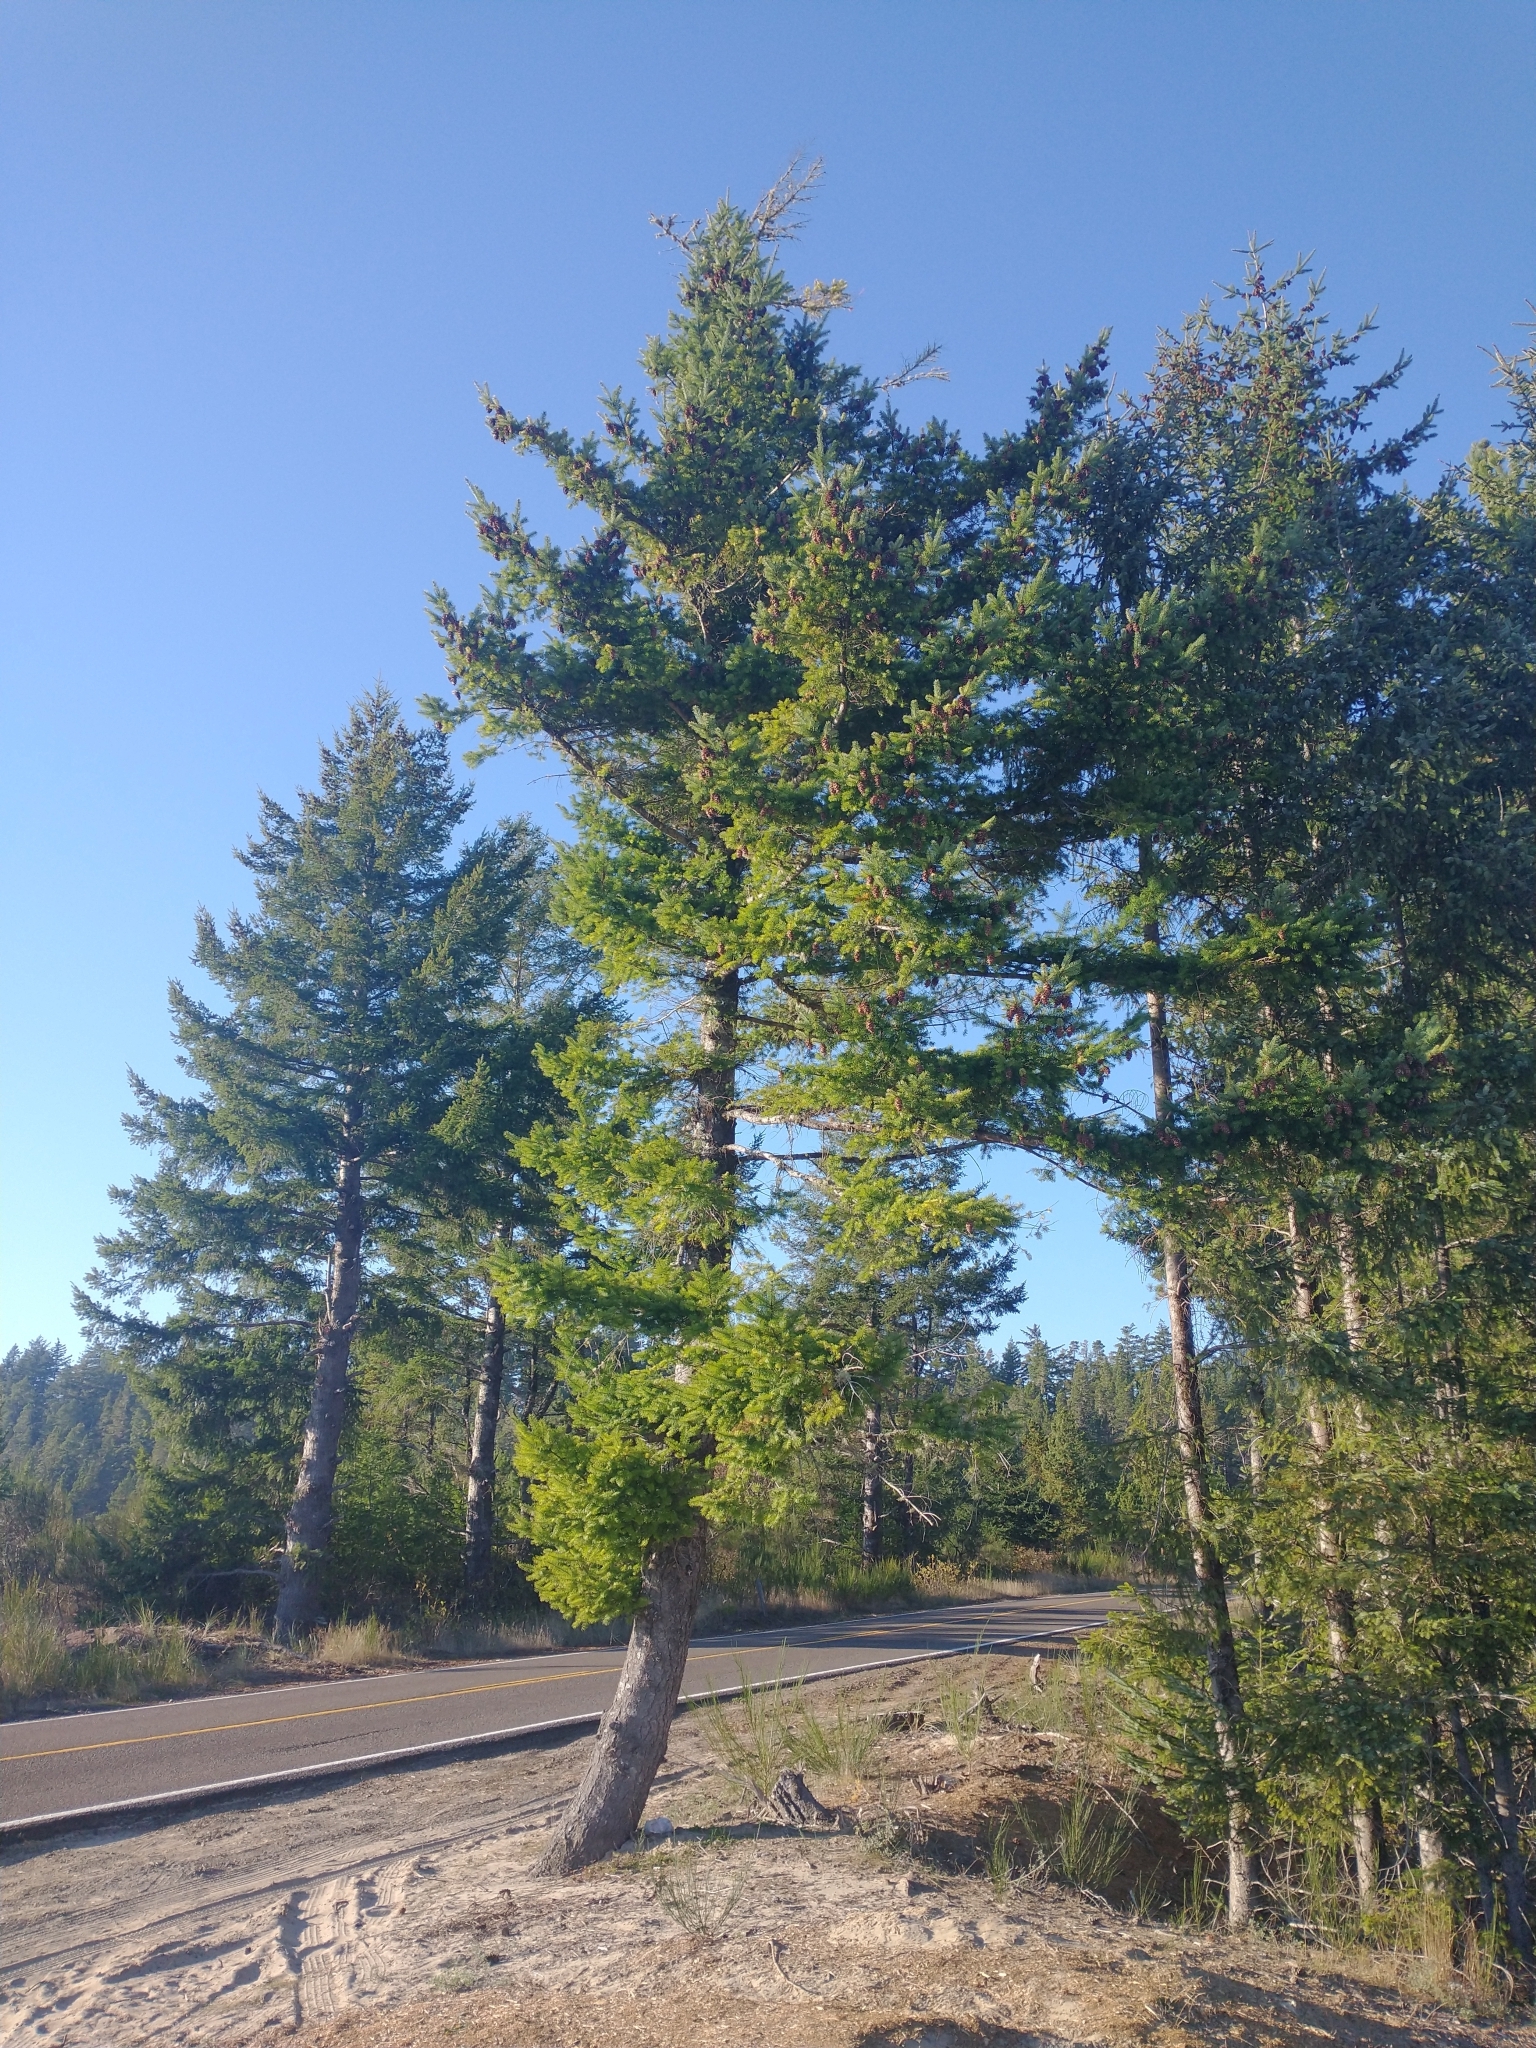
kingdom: Plantae
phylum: Tracheophyta
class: Pinopsida
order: Pinales
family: Pinaceae
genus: Pseudotsuga
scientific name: Pseudotsuga menziesii
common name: Douglas fir
